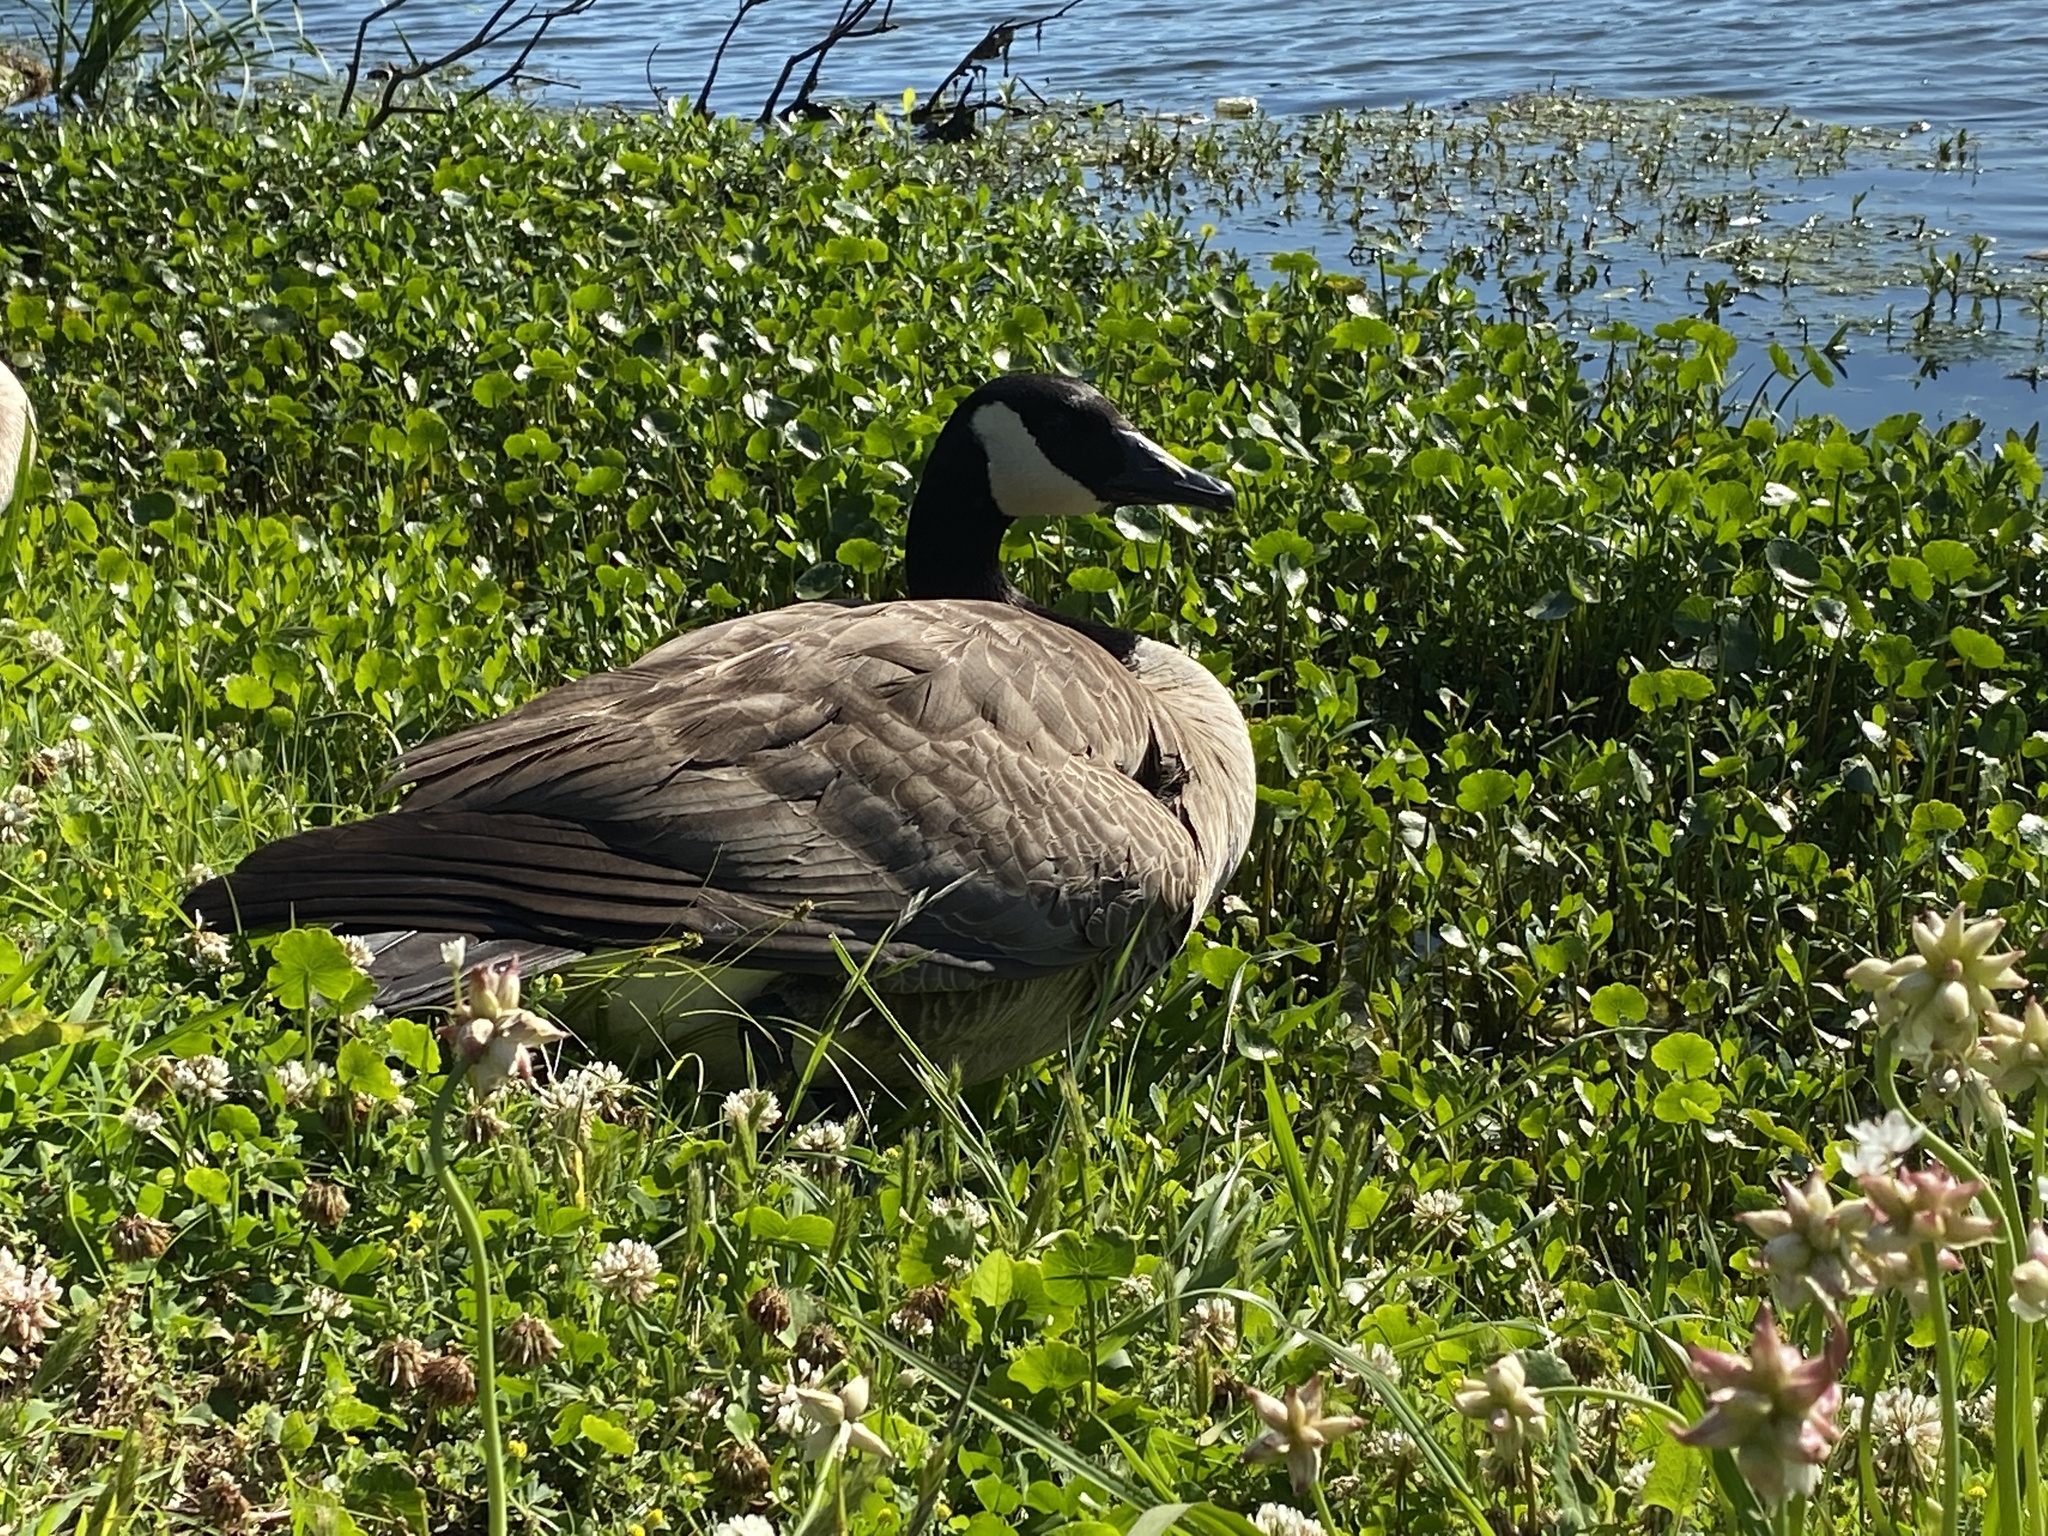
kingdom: Animalia
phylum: Chordata
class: Aves
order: Anseriformes
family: Anatidae
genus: Branta
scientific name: Branta canadensis
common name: Canada goose
